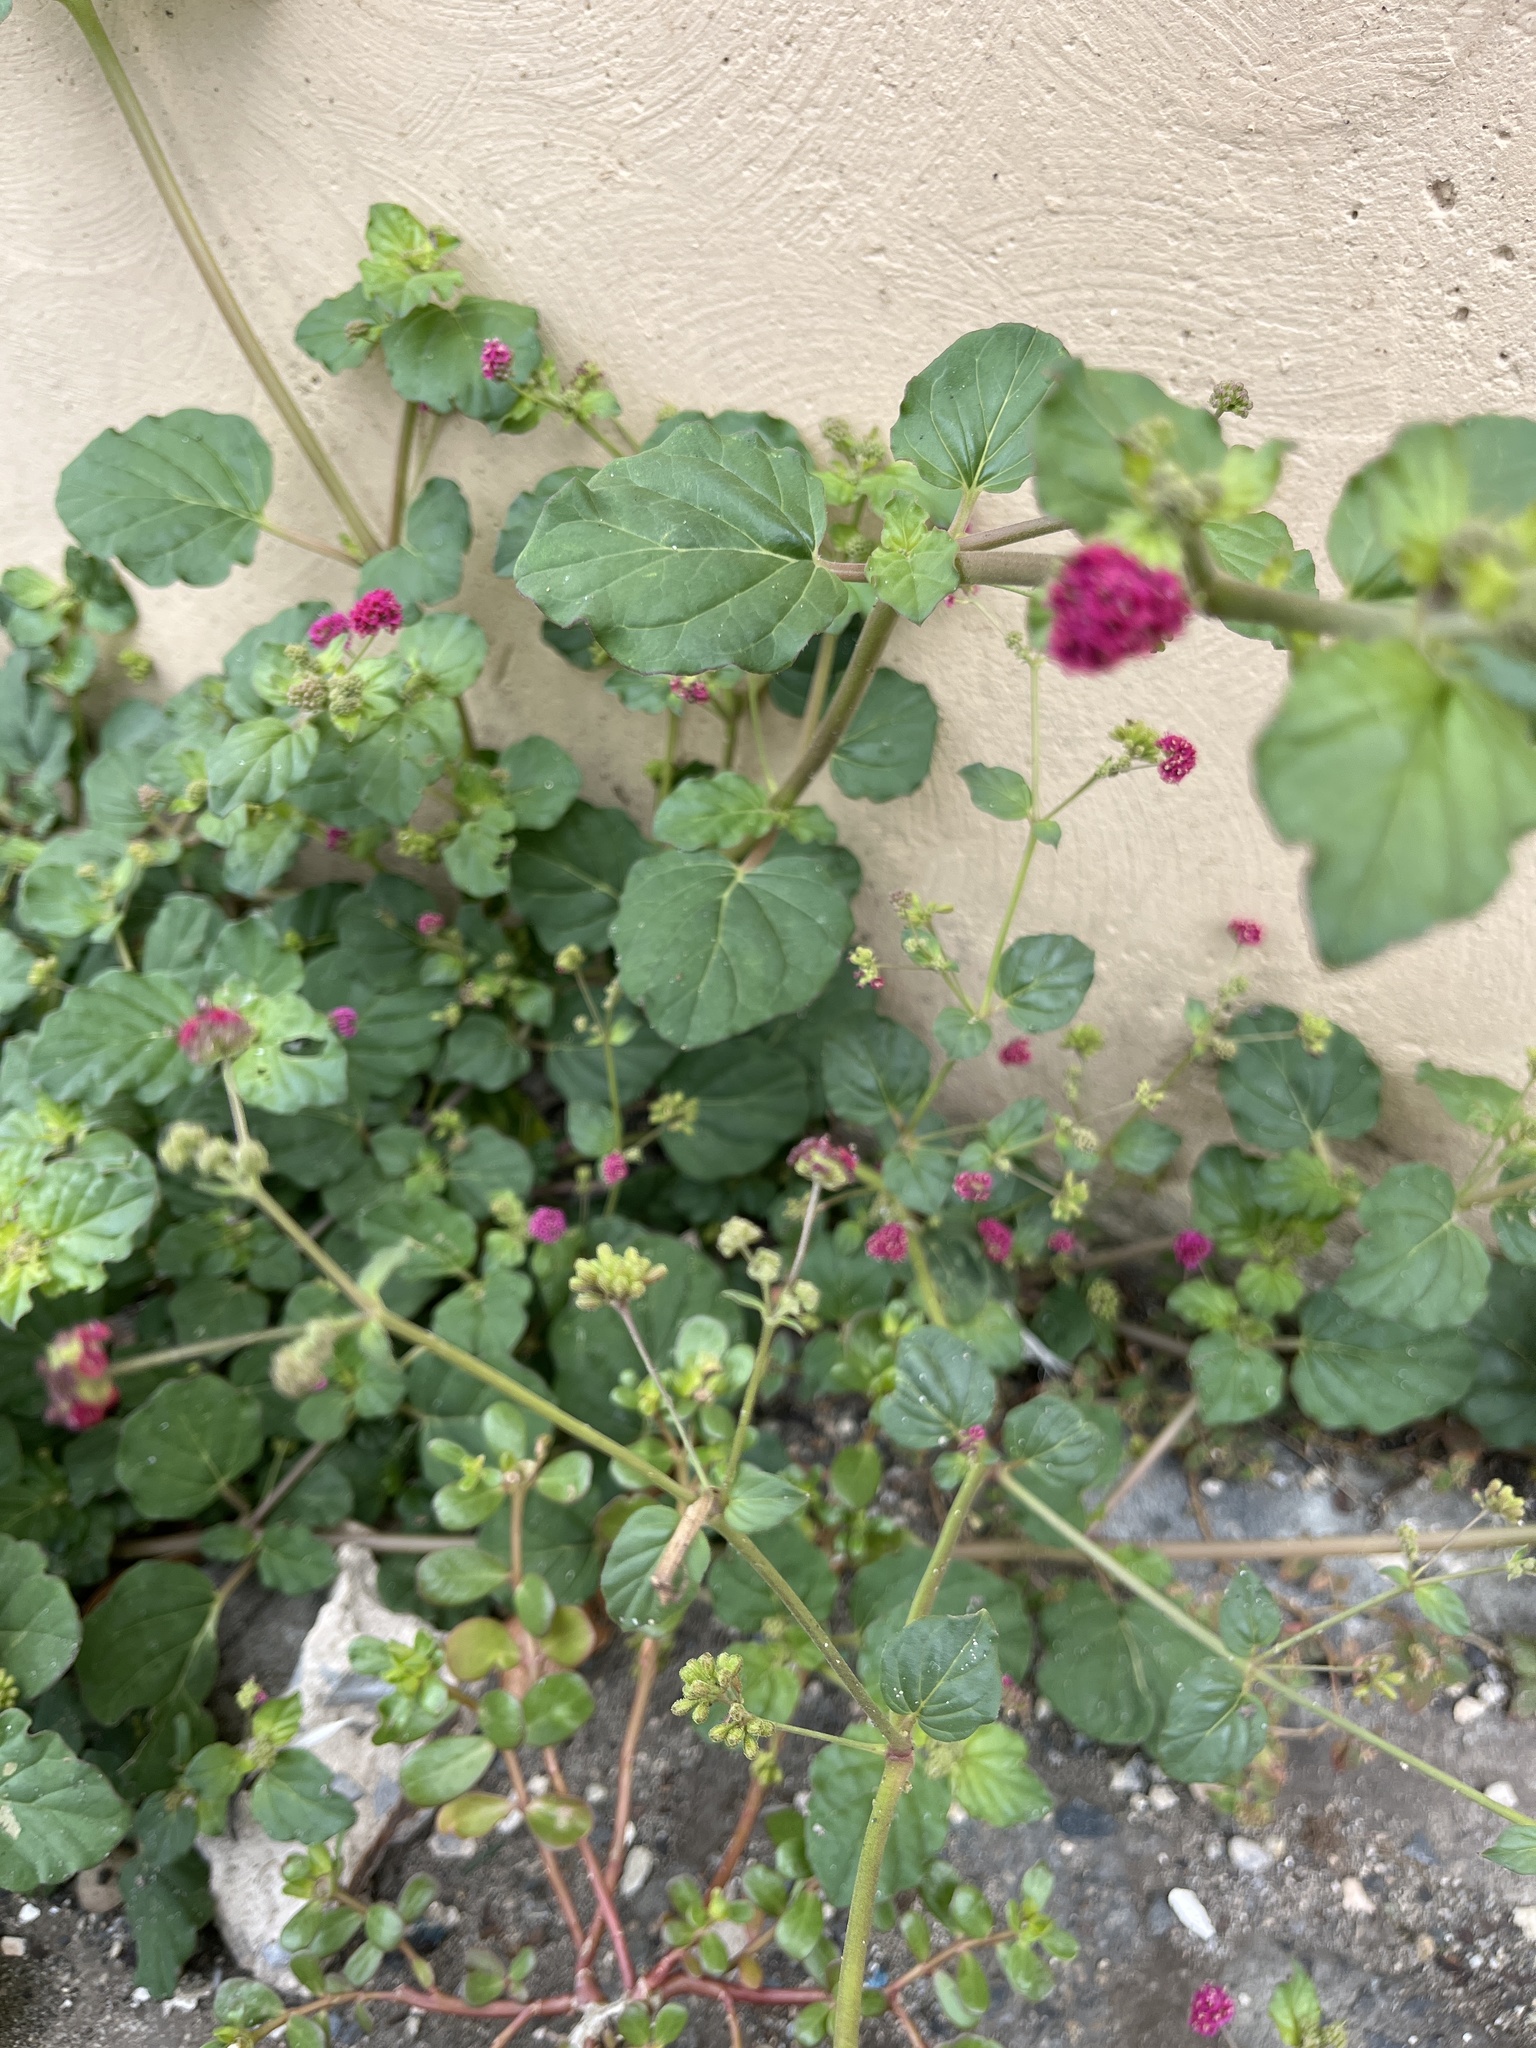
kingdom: Plantae
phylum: Tracheophyta
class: Magnoliopsida
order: Caryophyllales
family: Nyctaginaceae
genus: Boerhavia
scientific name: Boerhavia coccinea
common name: Scarlet spiderling
